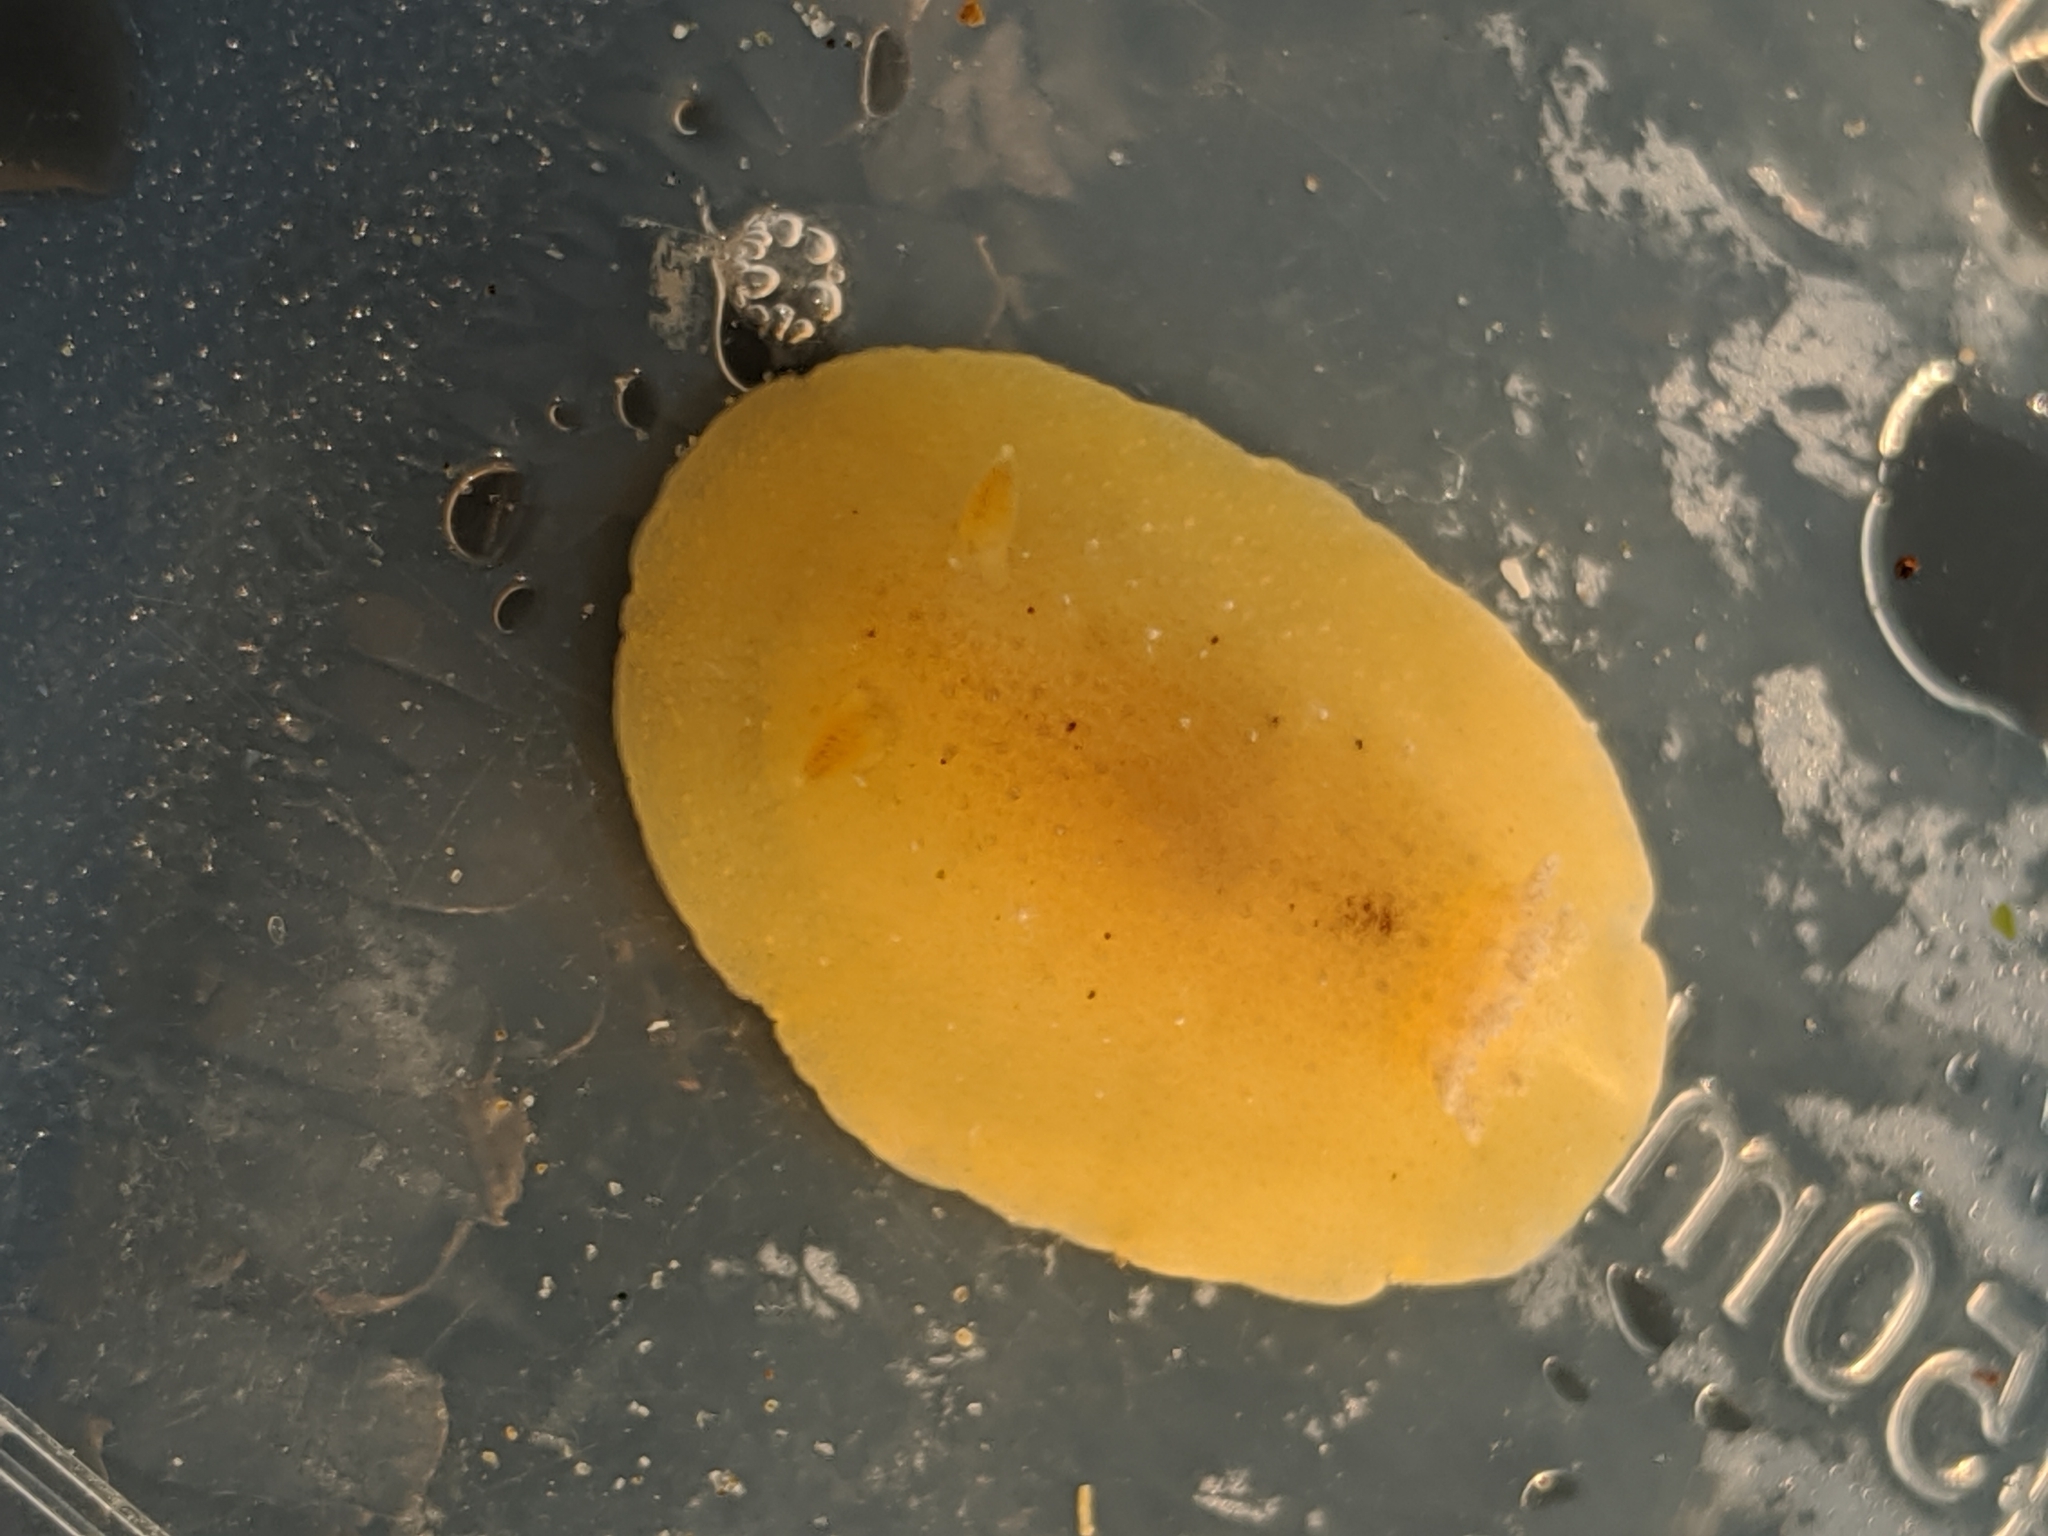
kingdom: Animalia
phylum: Mollusca
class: Gastropoda
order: Nudibranchia
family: Discodorididae
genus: Geitodoris
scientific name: Geitodoris heathi
